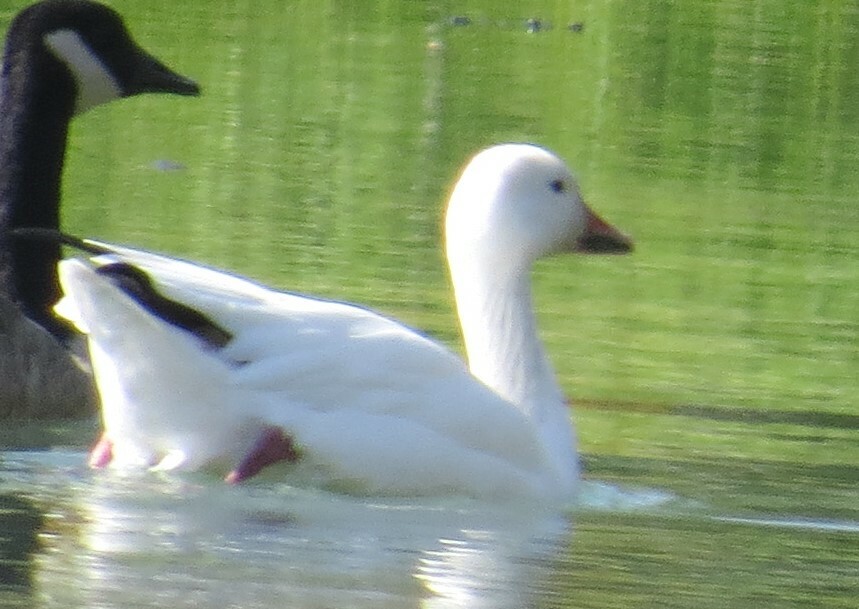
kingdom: Animalia
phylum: Chordata
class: Aves
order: Anseriformes
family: Anatidae
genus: Anser
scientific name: Anser caerulescens
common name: Snow goose
